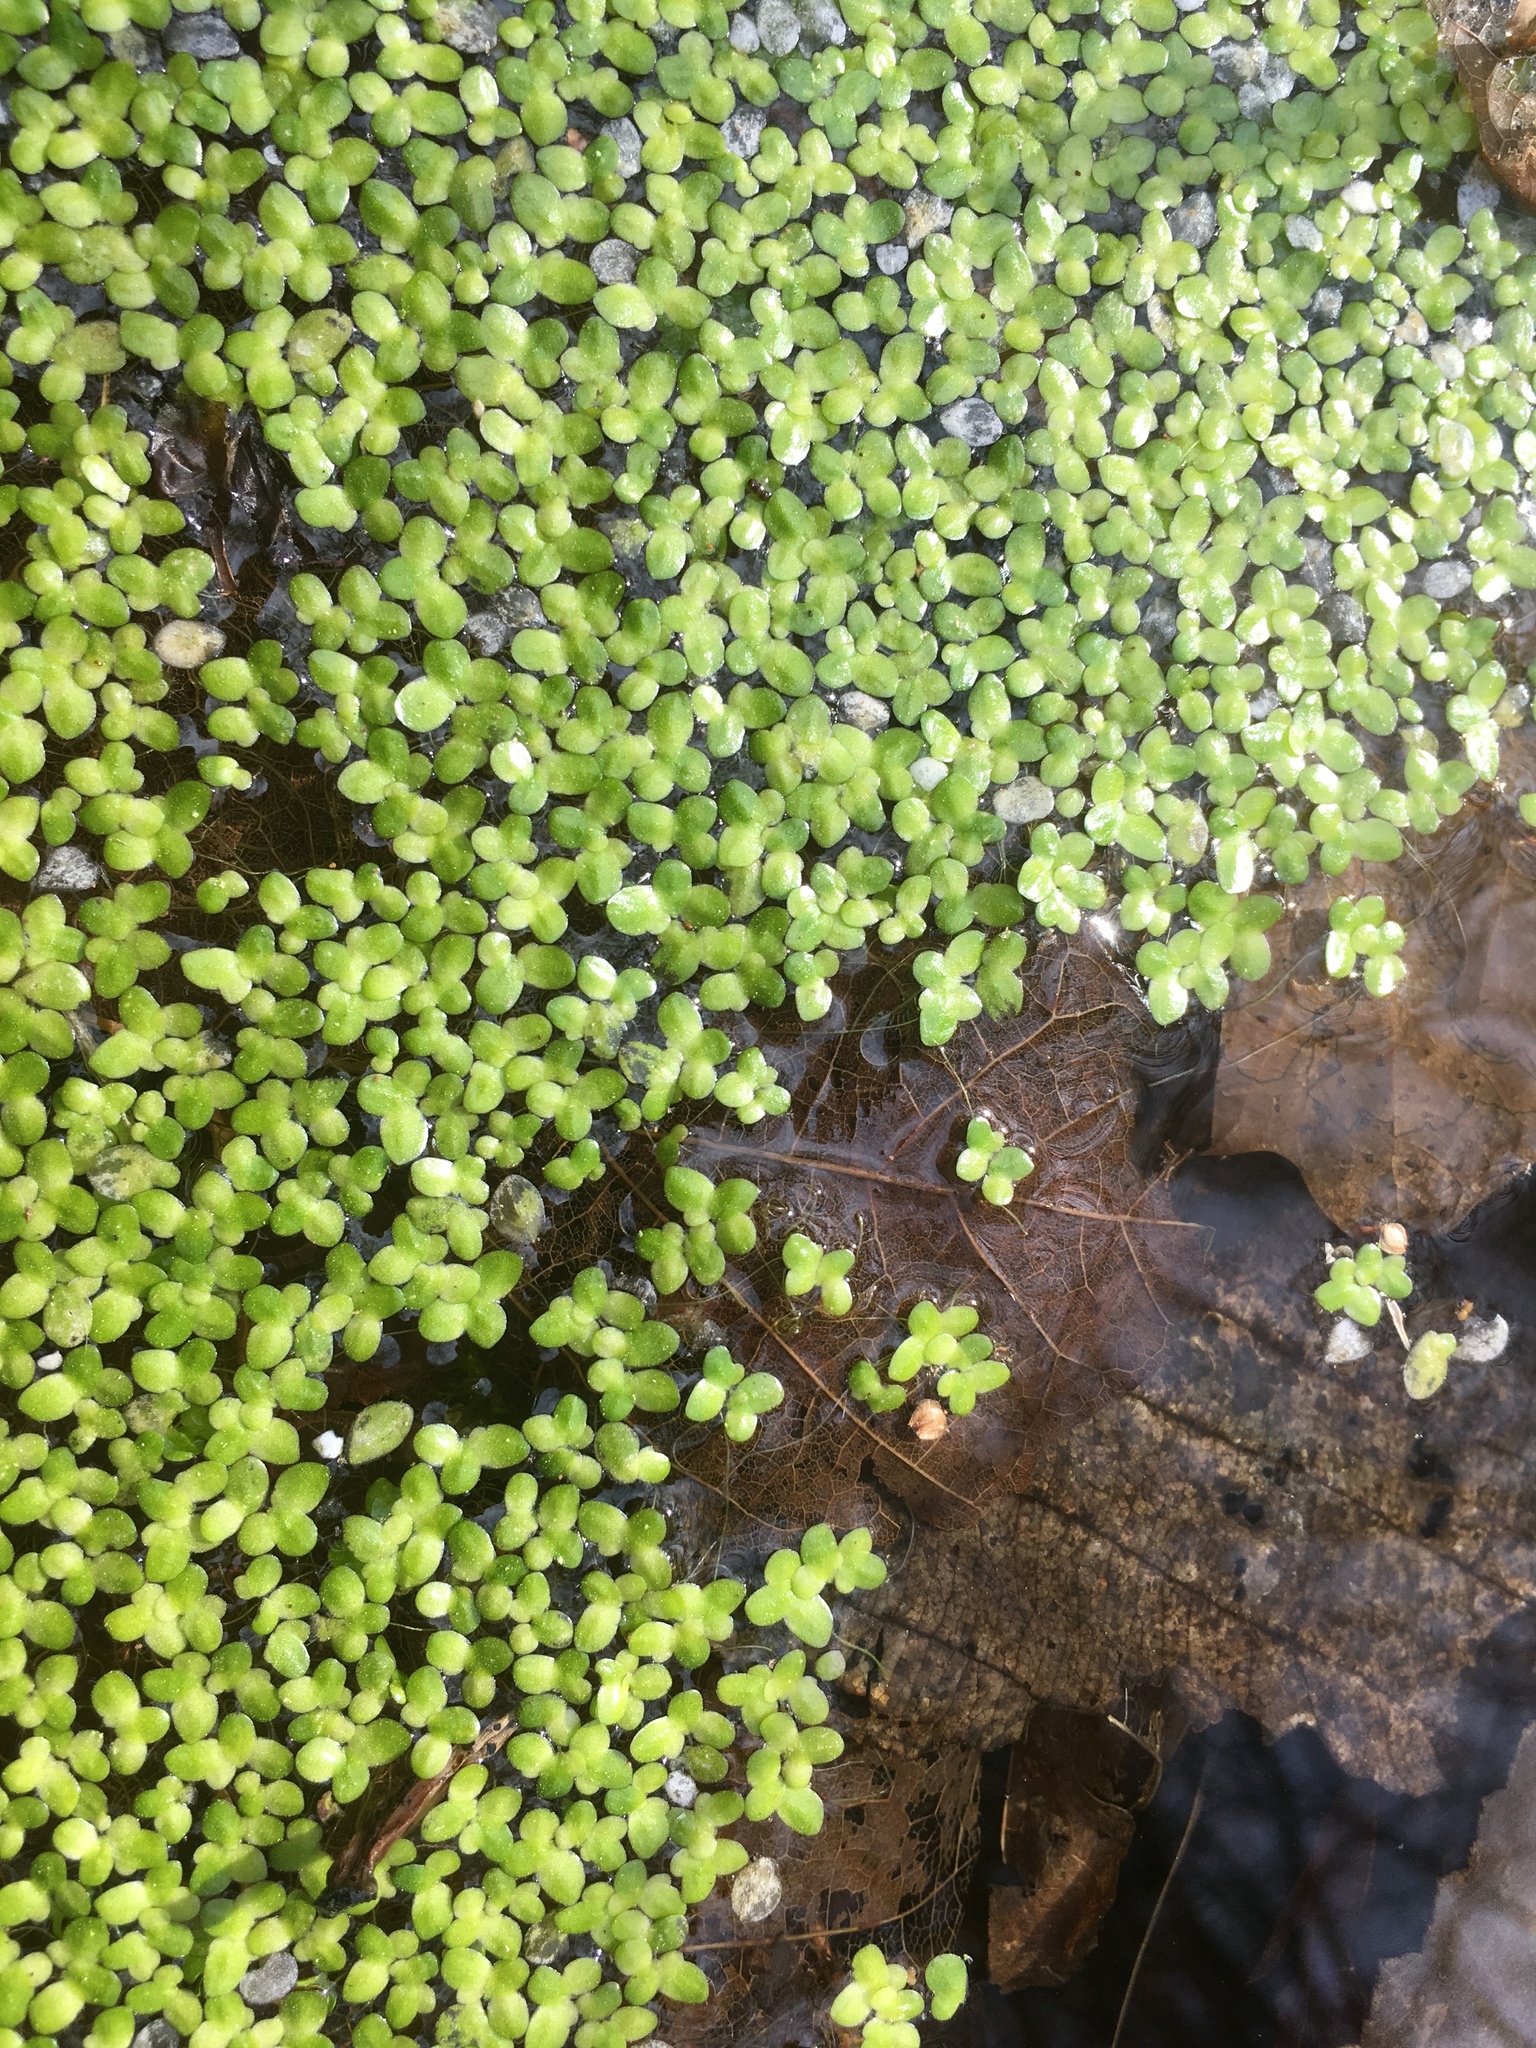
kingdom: Plantae
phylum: Tracheophyta
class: Liliopsida
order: Alismatales
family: Araceae
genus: Lemna
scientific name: Lemna minor
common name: Common duckweed
